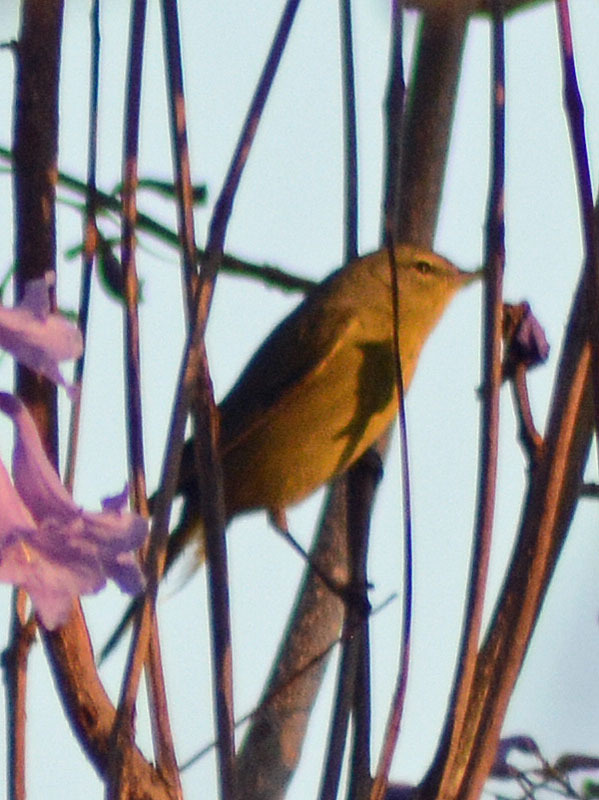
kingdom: Animalia
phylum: Chordata
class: Aves
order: Passeriformes
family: Parulidae
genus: Leiothlypis
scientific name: Leiothlypis celata
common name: Orange-crowned warbler
